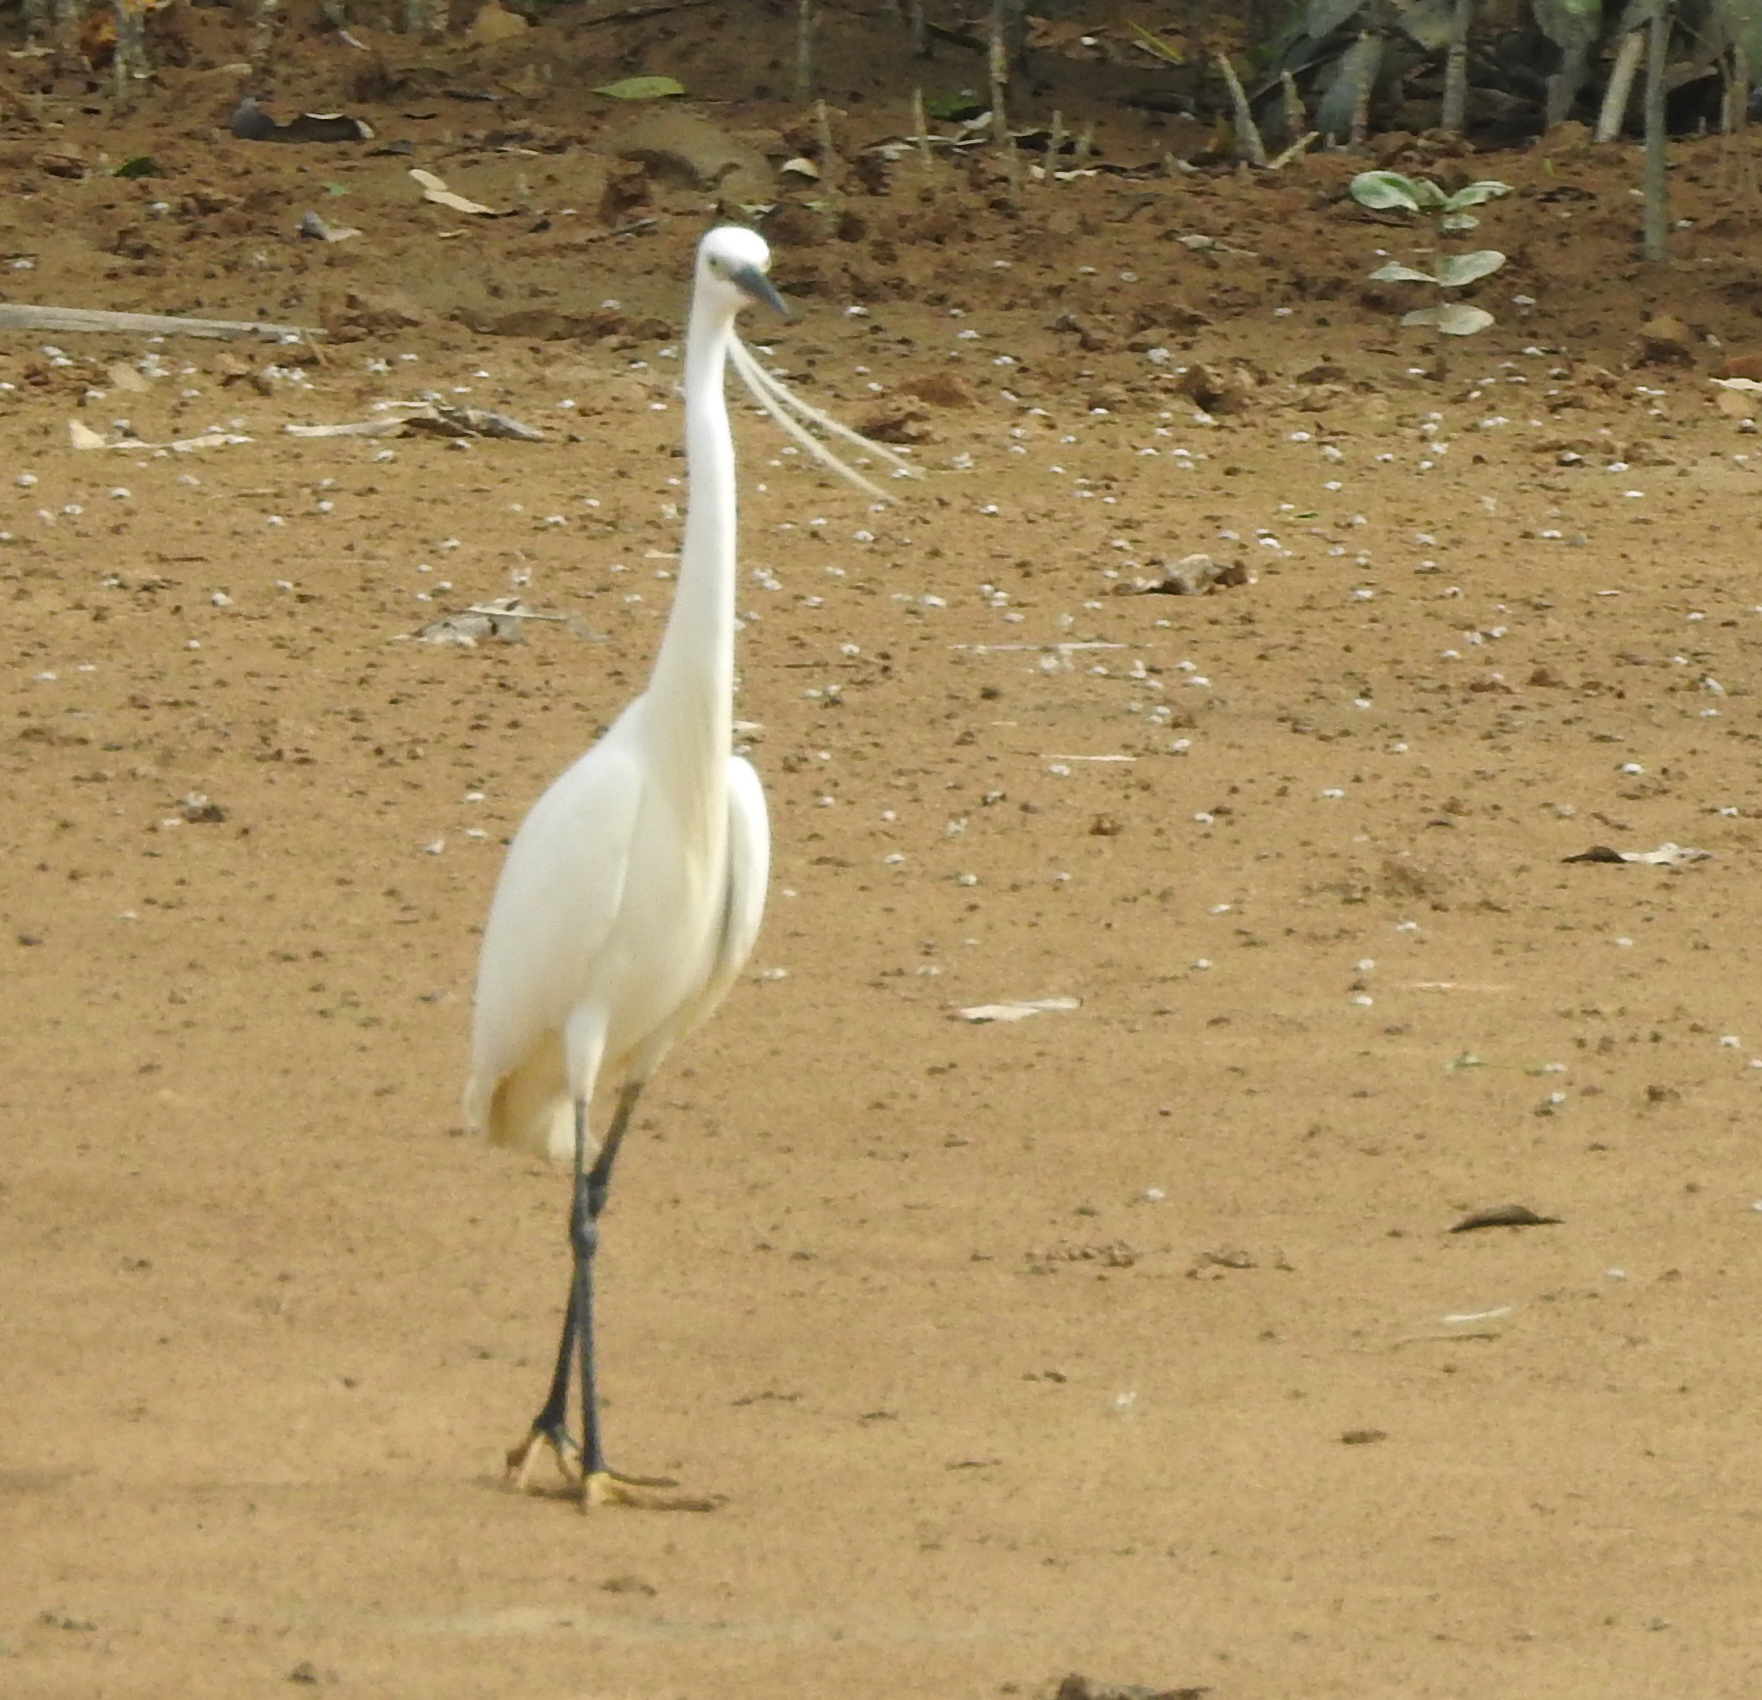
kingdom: Animalia
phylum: Chordata
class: Aves
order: Pelecaniformes
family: Ardeidae
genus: Egretta
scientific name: Egretta garzetta
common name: Little egret
